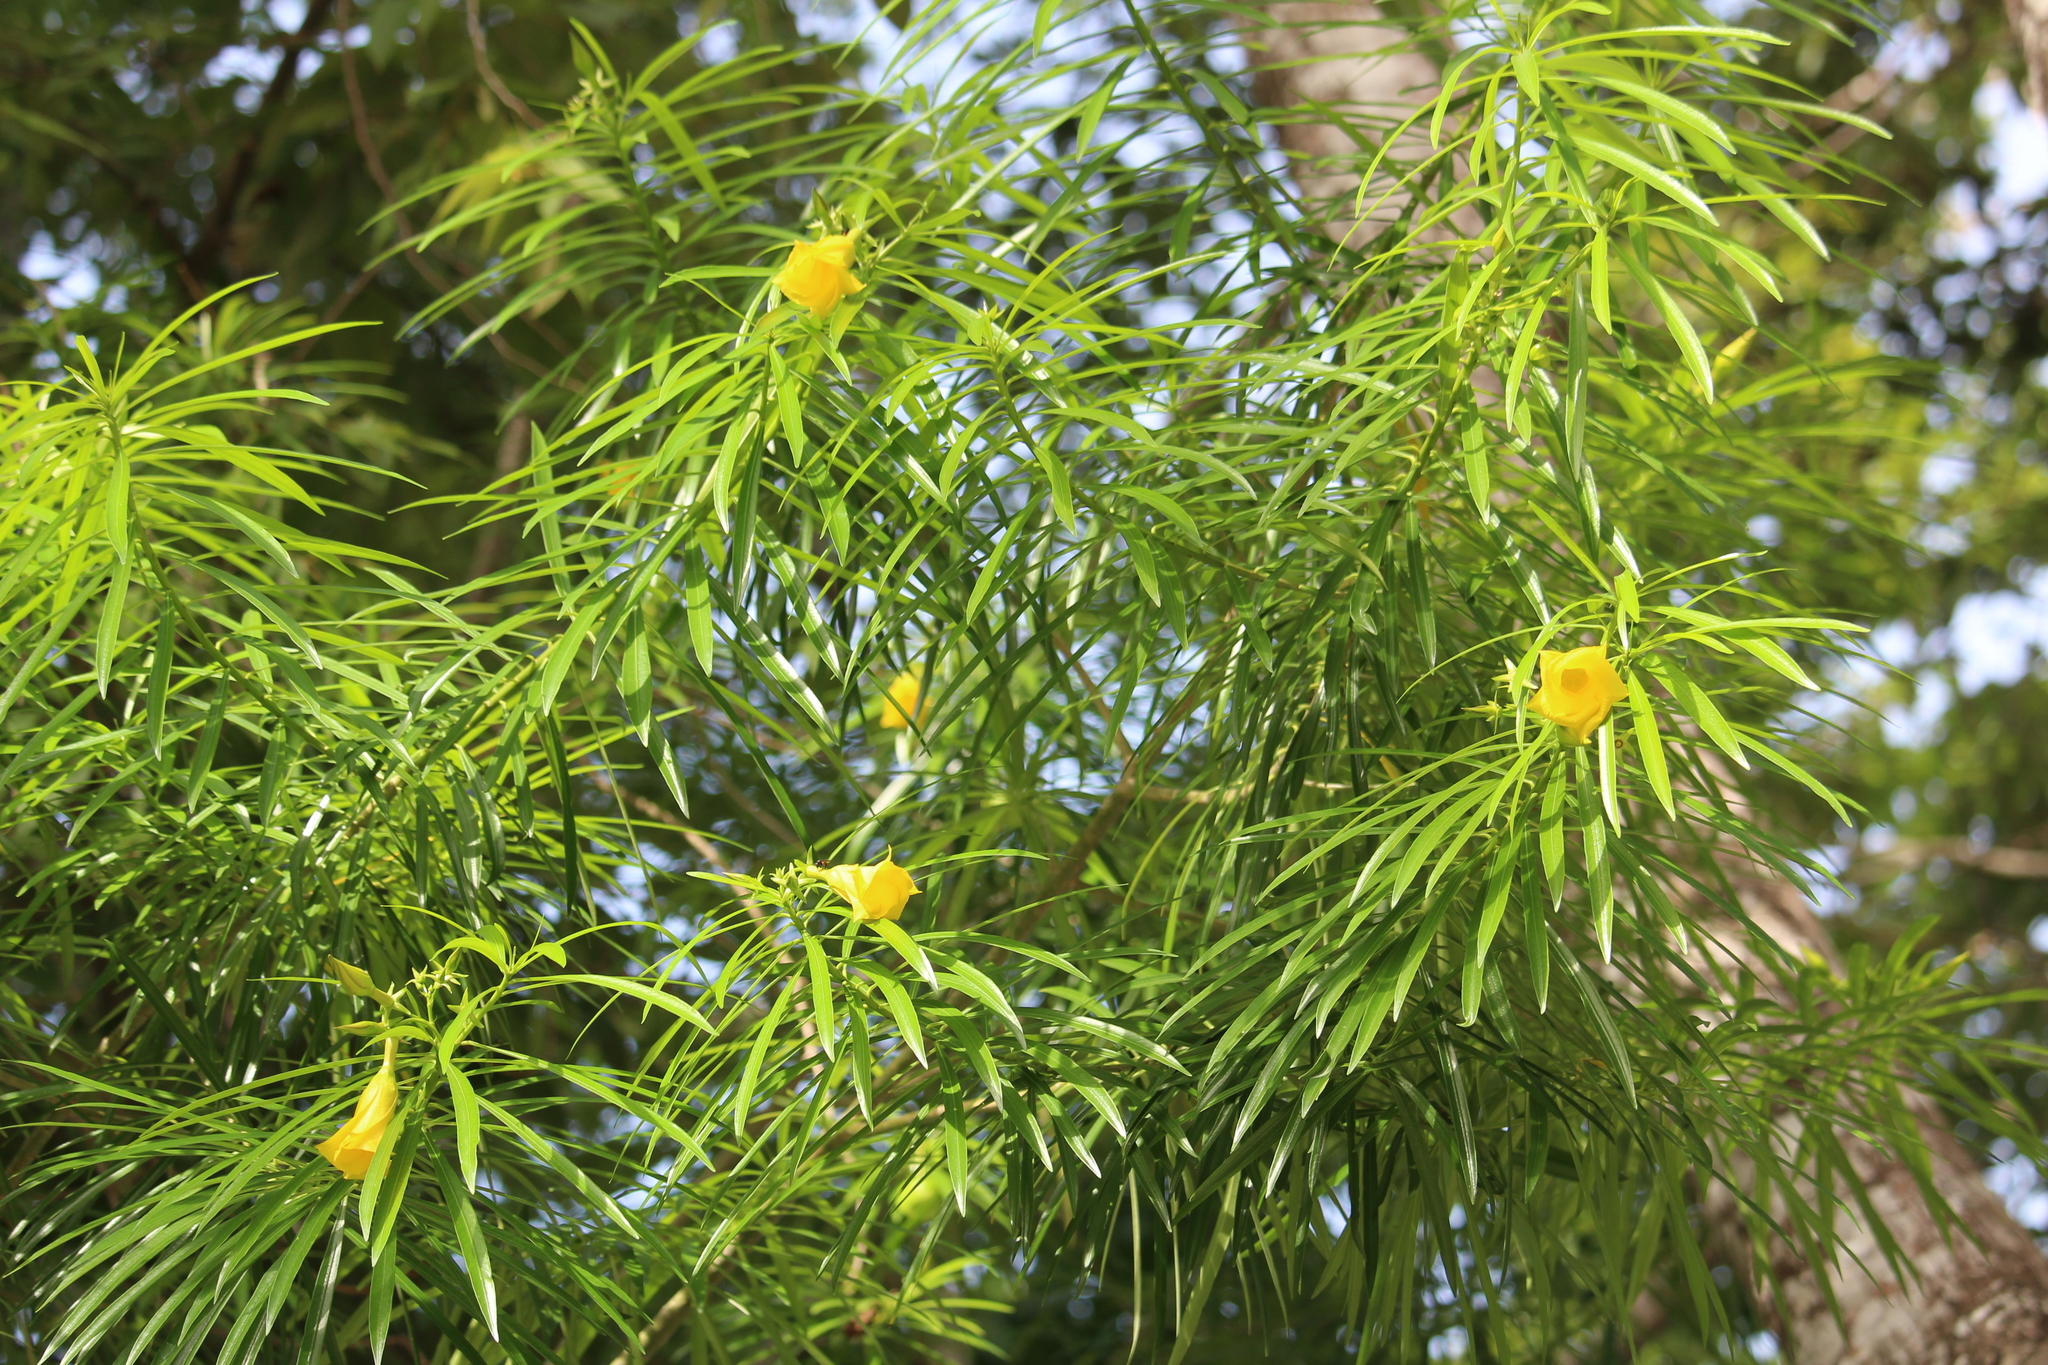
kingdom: Plantae
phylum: Tracheophyta
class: Magnoliopsida
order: Gentianales
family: Apocynaceae
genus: Cascabela
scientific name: Cascabela thevetia
